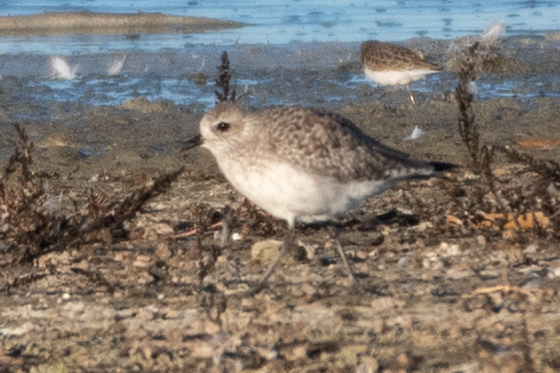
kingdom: Animalia
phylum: Chordata
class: Aves
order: Charadriiformes
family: Charadriidae
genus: Pluvialis
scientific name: Pluvialis squatarola
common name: Grey plover
